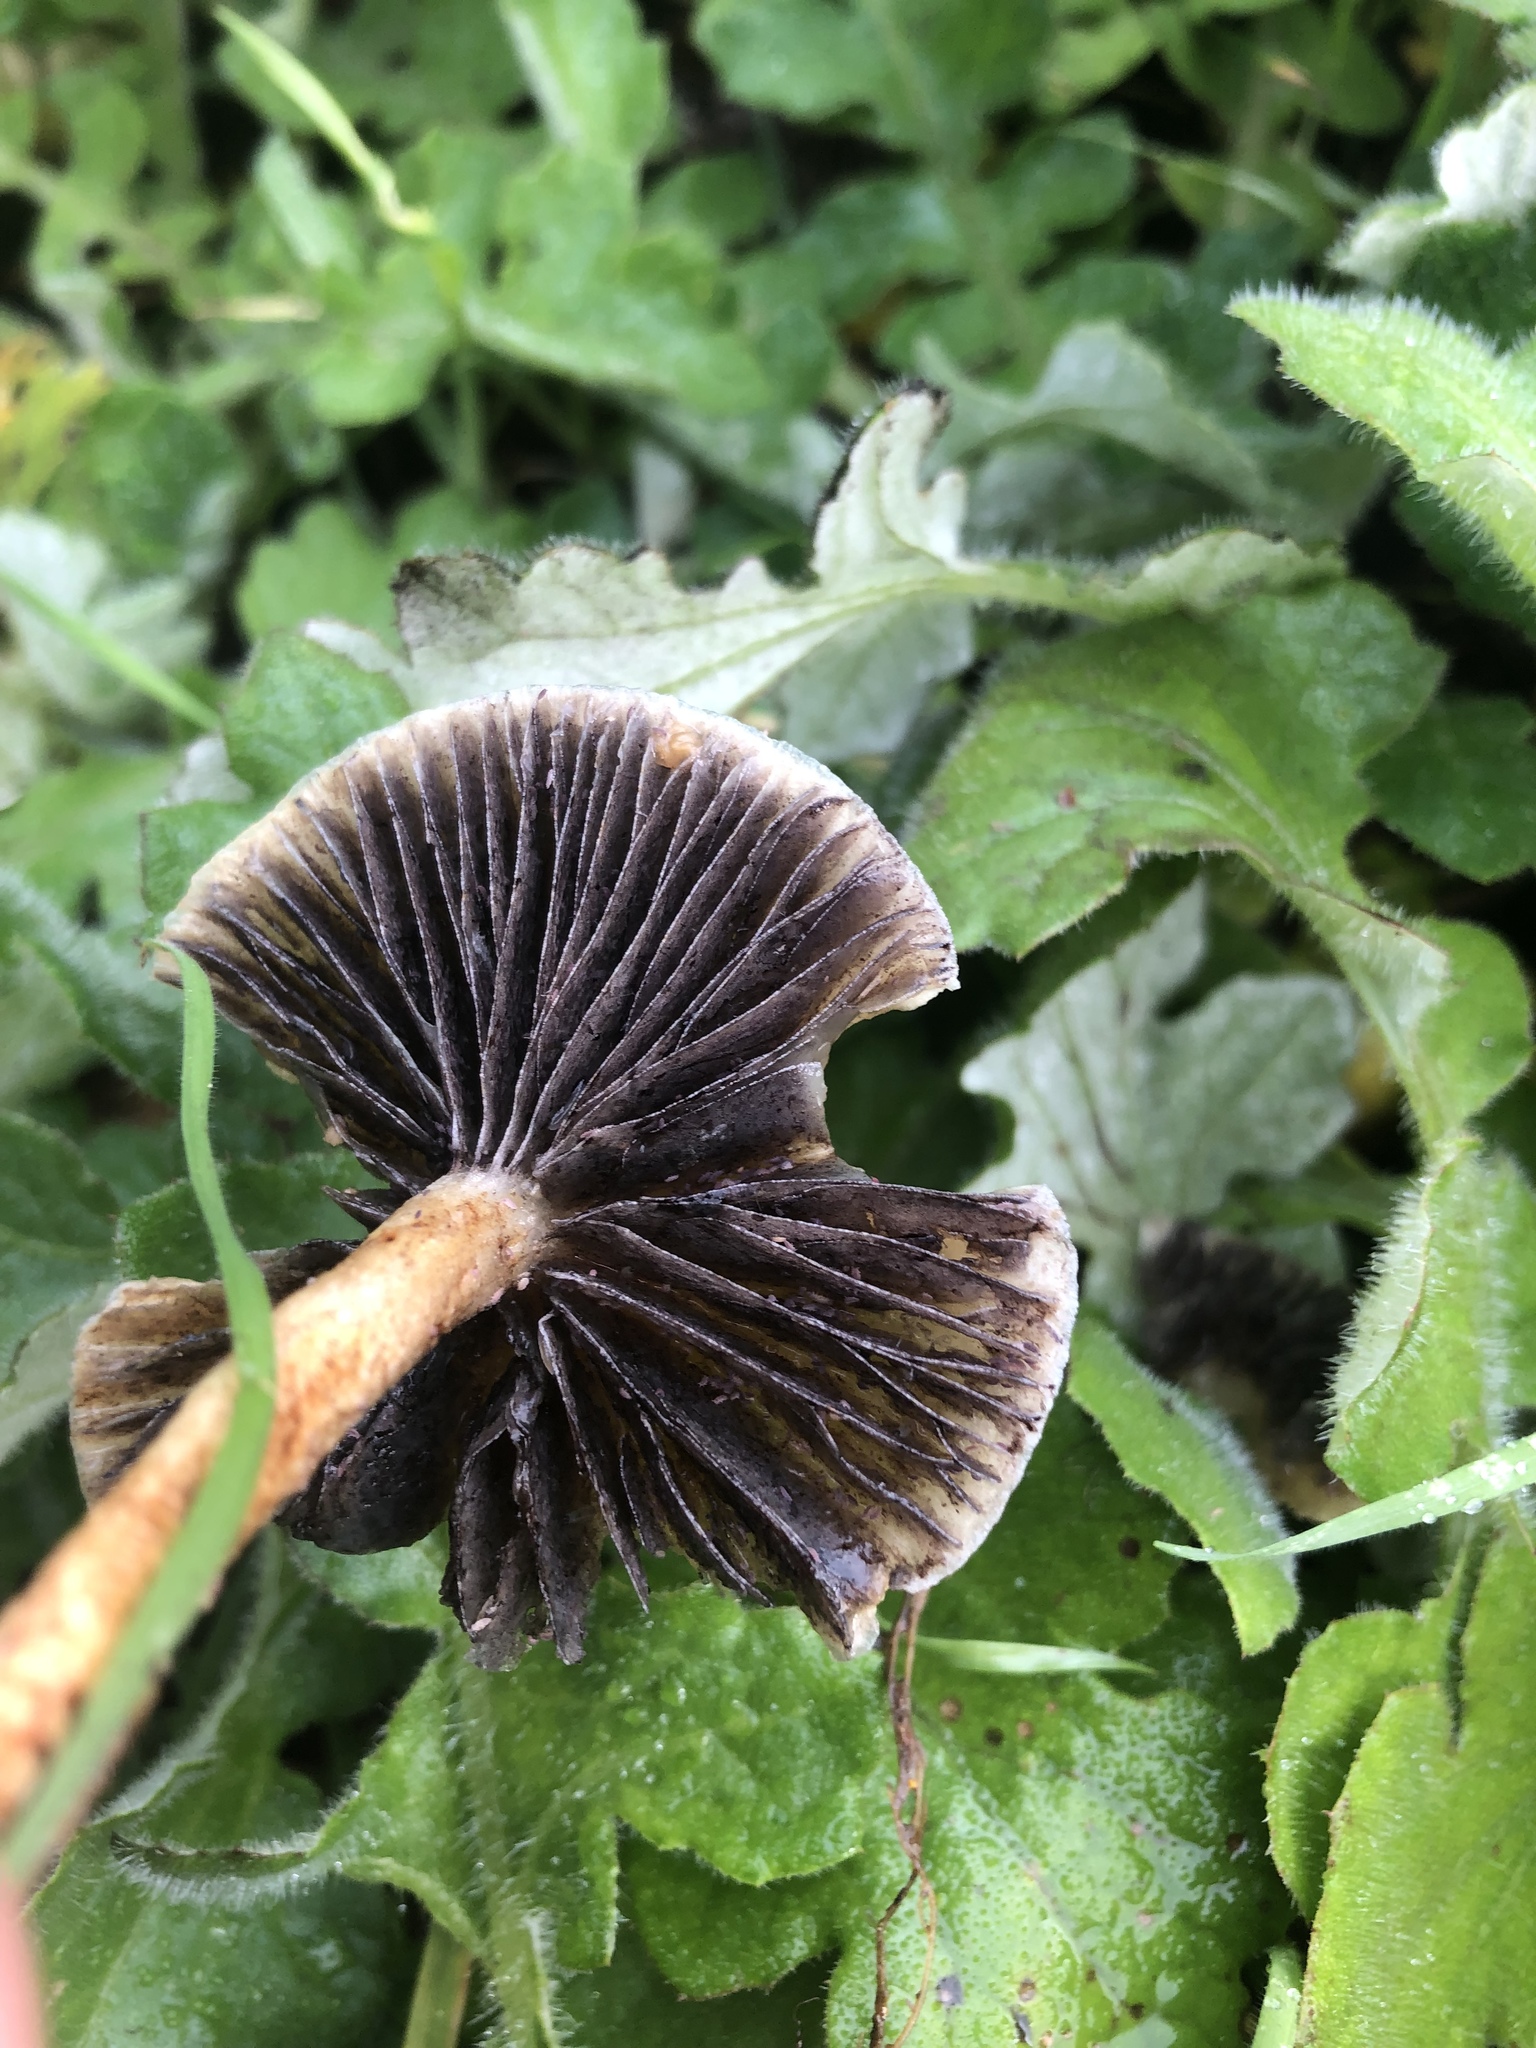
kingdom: Fungi
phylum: Basidiomycota
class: Agaricomycetes
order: Agaricales
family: Strophariaceae
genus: Leratiomyces
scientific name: Leratiomyces percevalii
